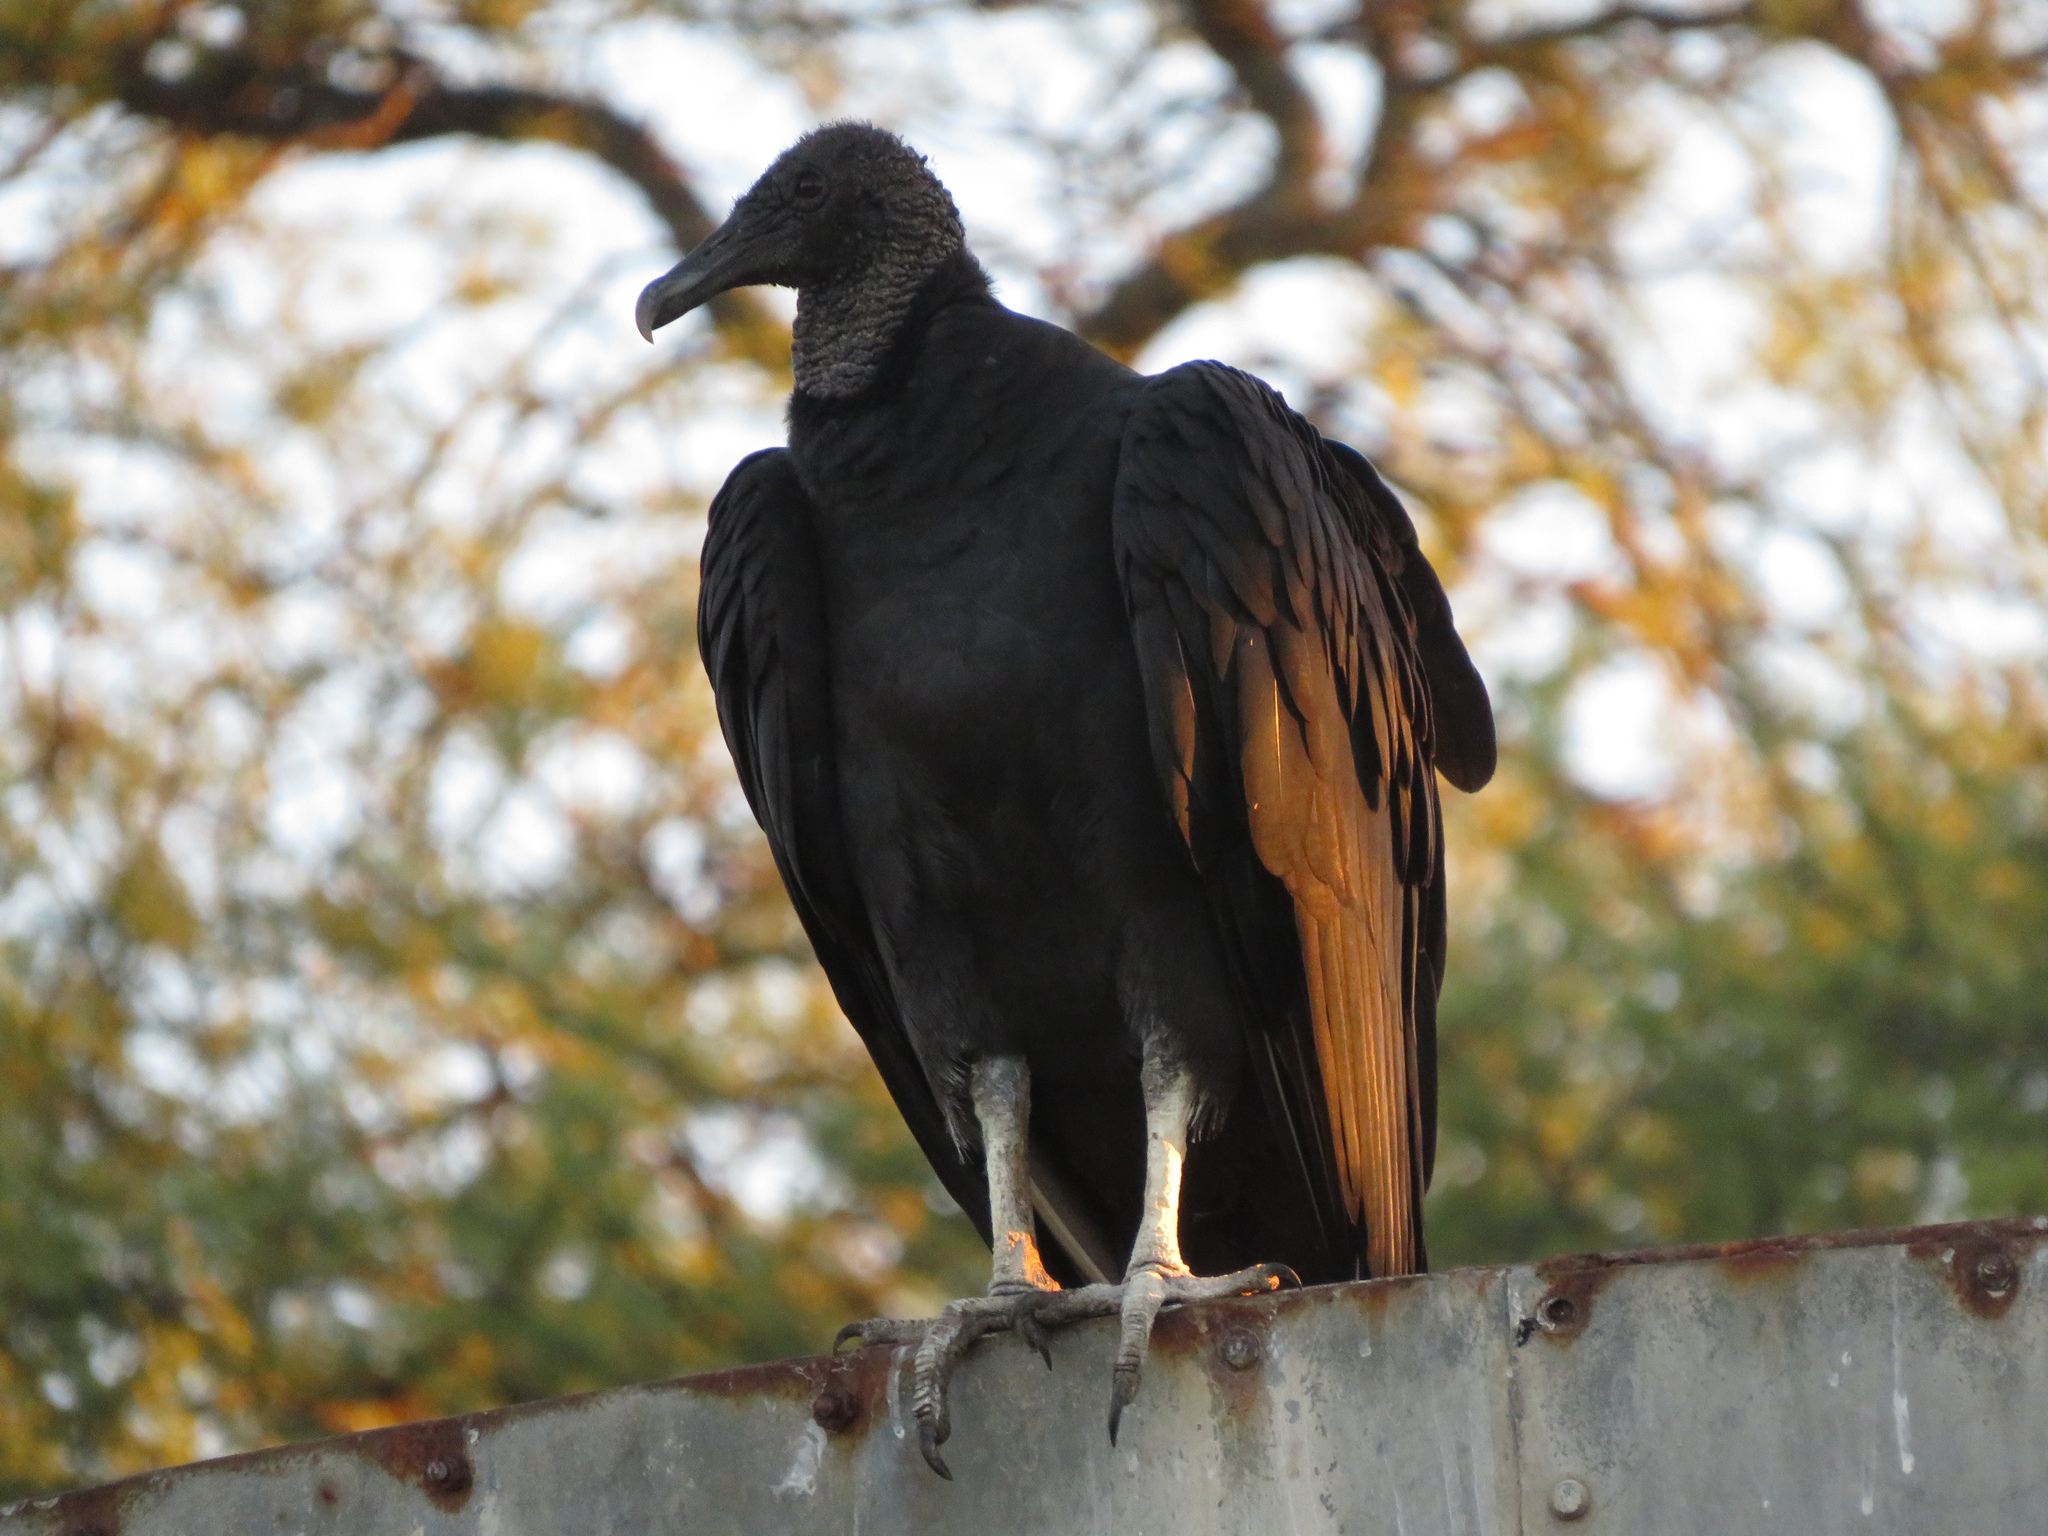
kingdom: Animalia
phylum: Chordata
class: Aves
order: Accipitriformes
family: Cathartidae
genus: Coragyps
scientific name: Coragyps atratus
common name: Black vulture
